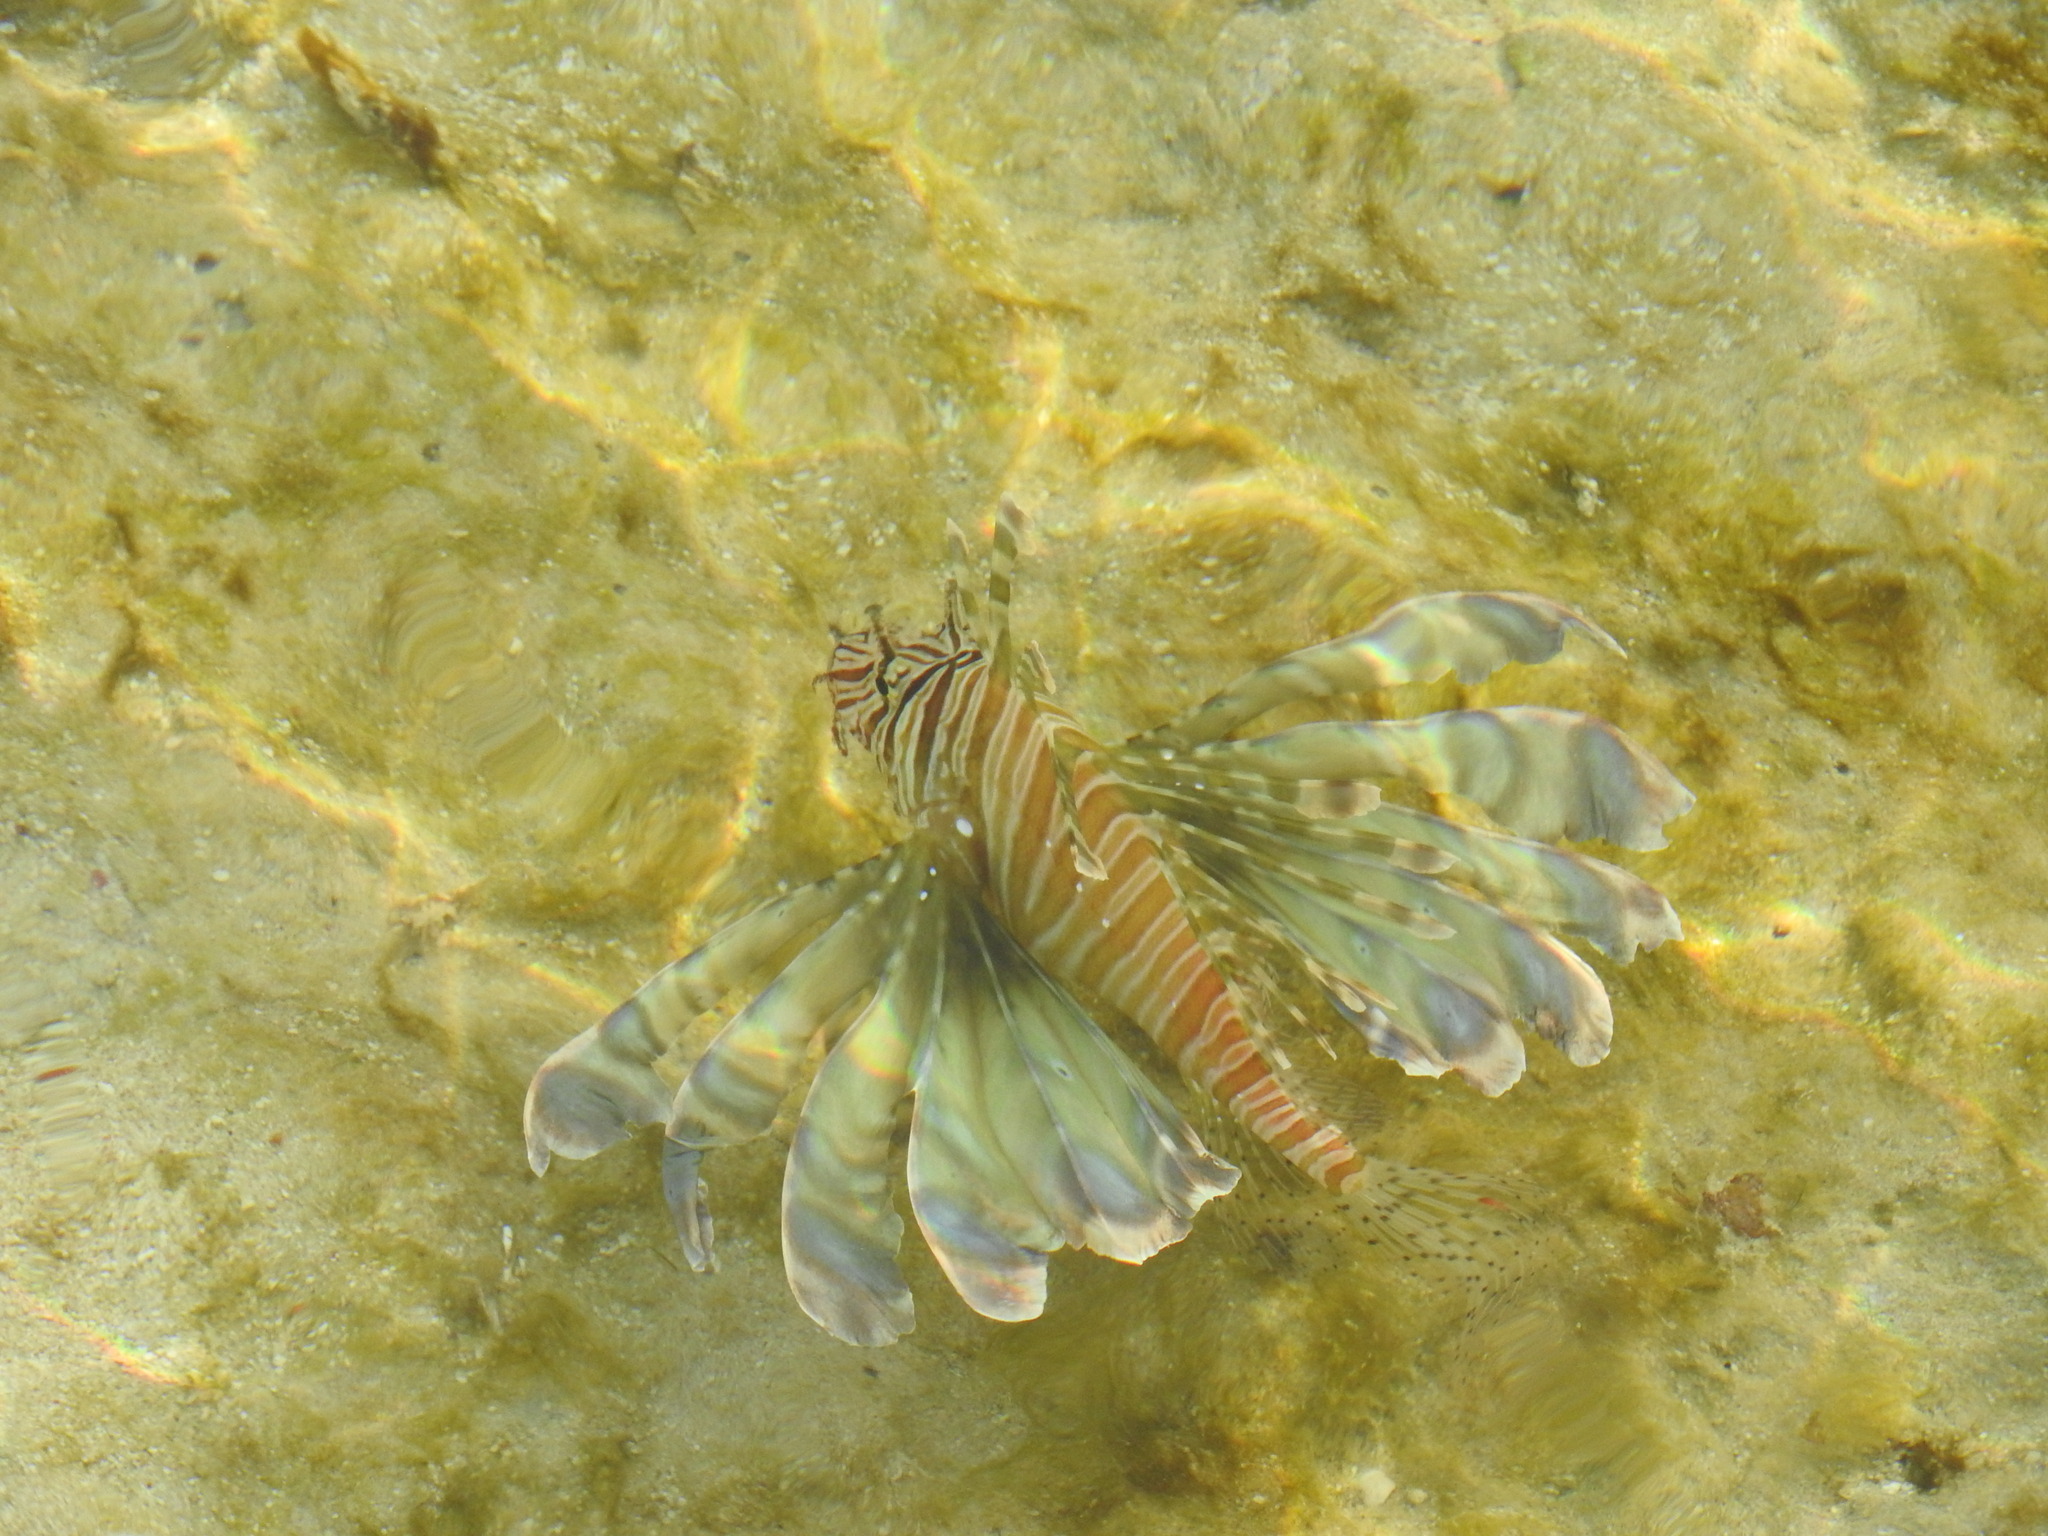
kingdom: Animalia
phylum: Chordata
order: Scorpaeniformes
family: Scorpaenidae
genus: Pterois
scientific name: Pterois miles
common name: Devil firefish
